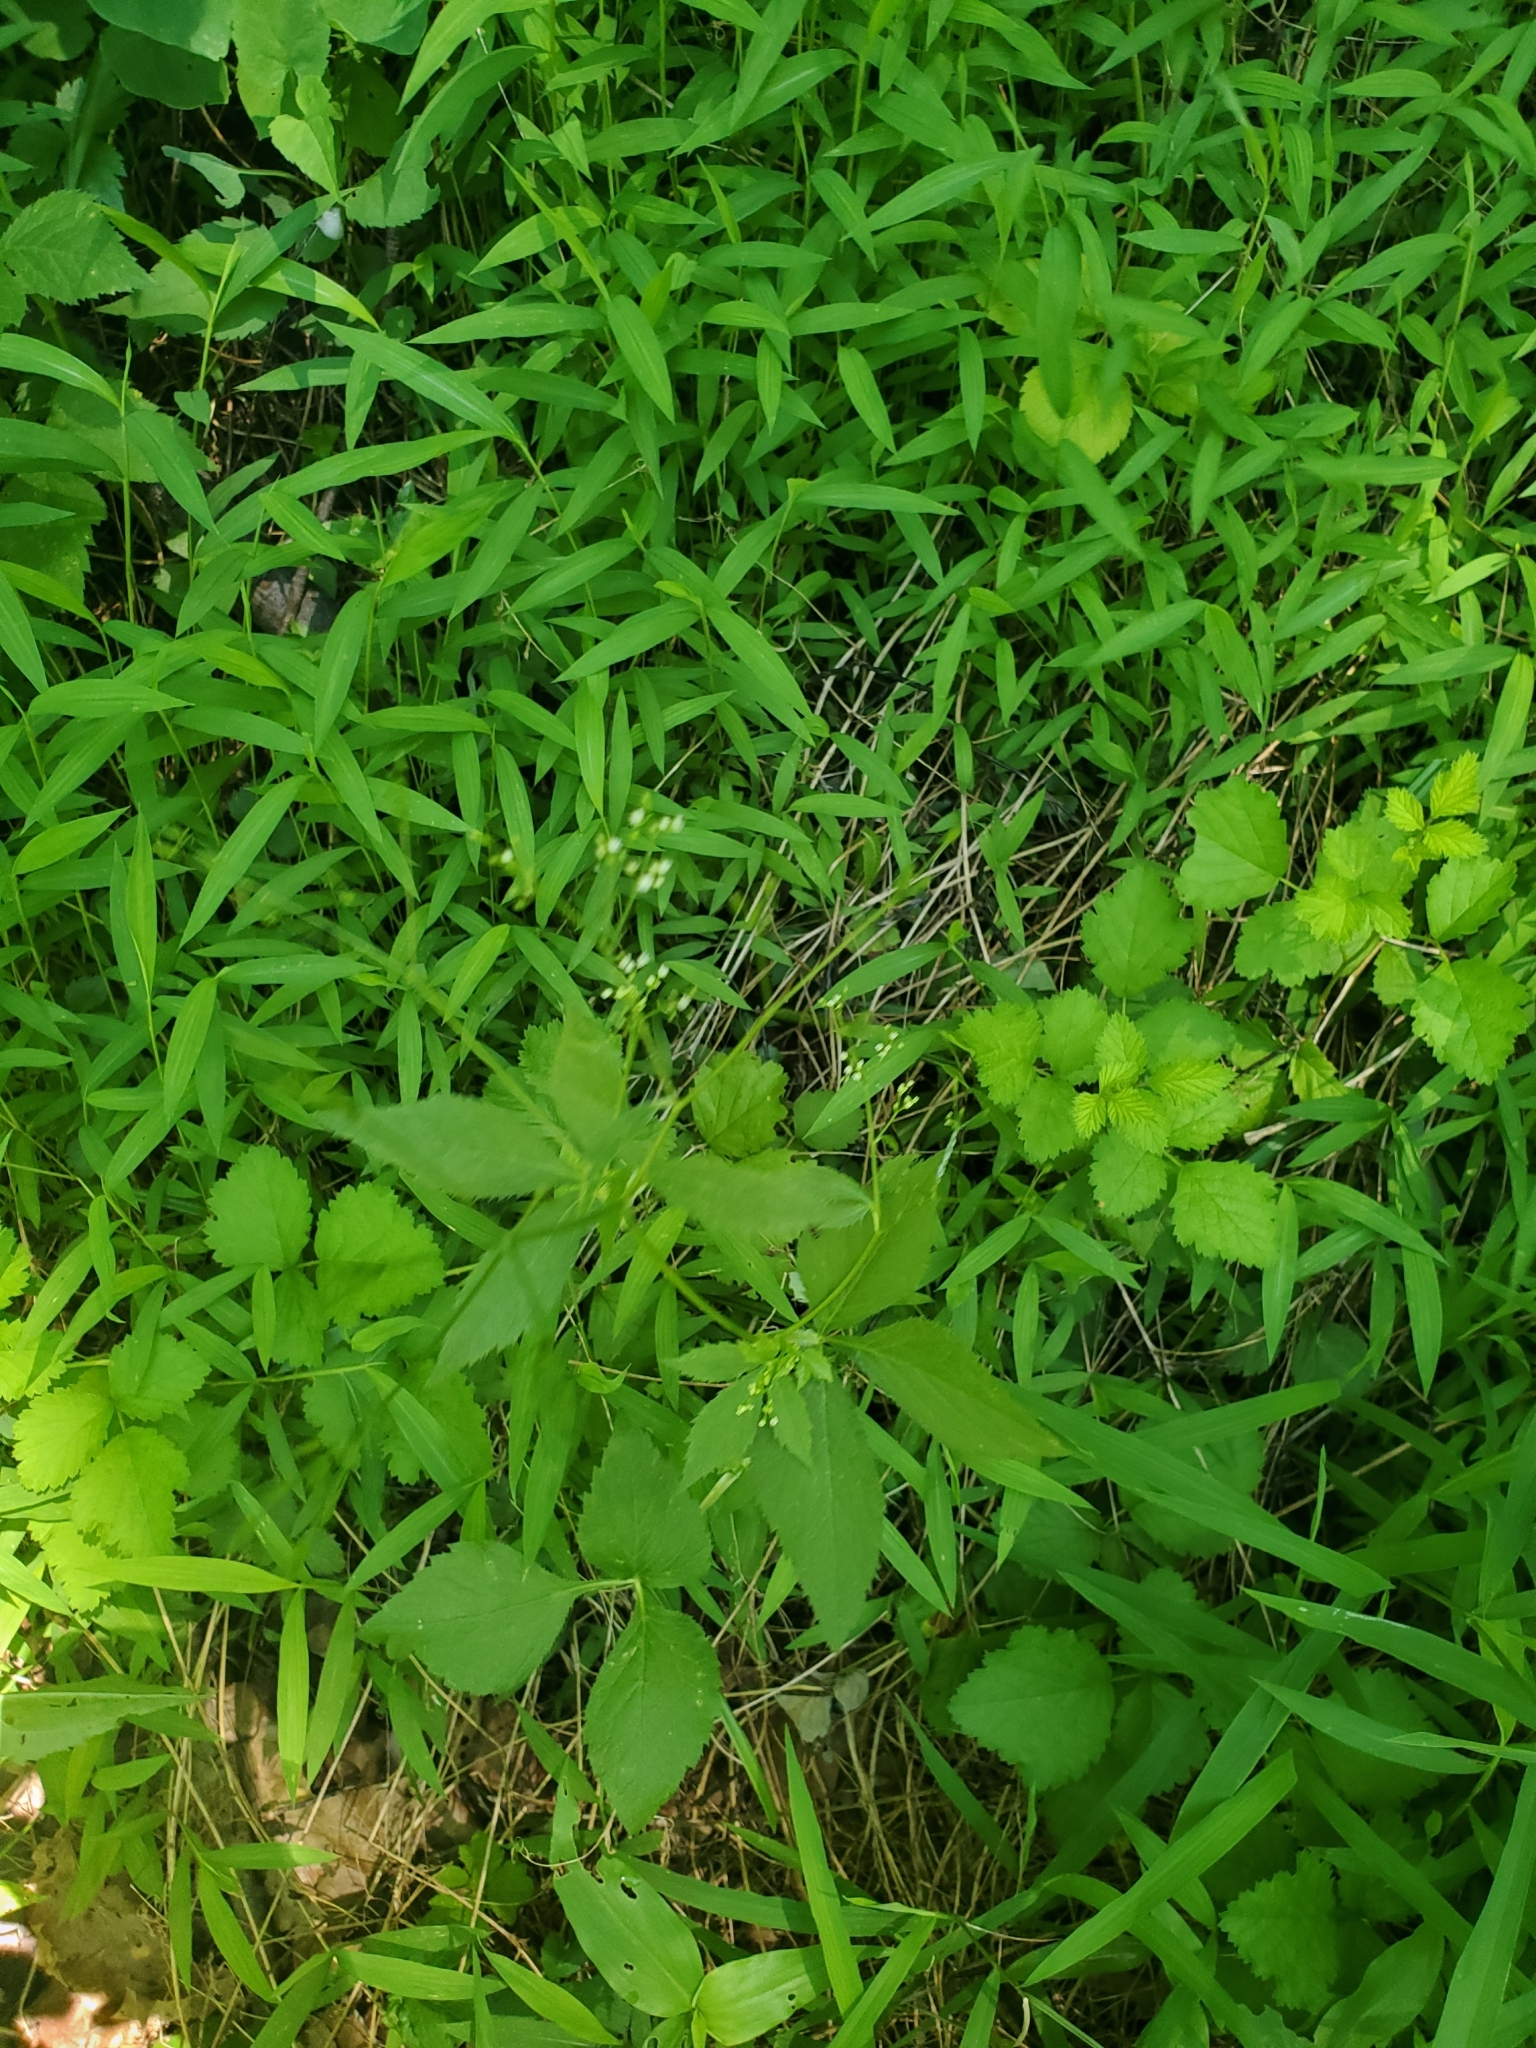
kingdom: Plantae
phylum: Tracheophyta
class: Magnoliopsida
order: Apiales
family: Apiaceae
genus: Cryptotaenia
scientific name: Cryptotaenia canadensis
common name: Honewort
